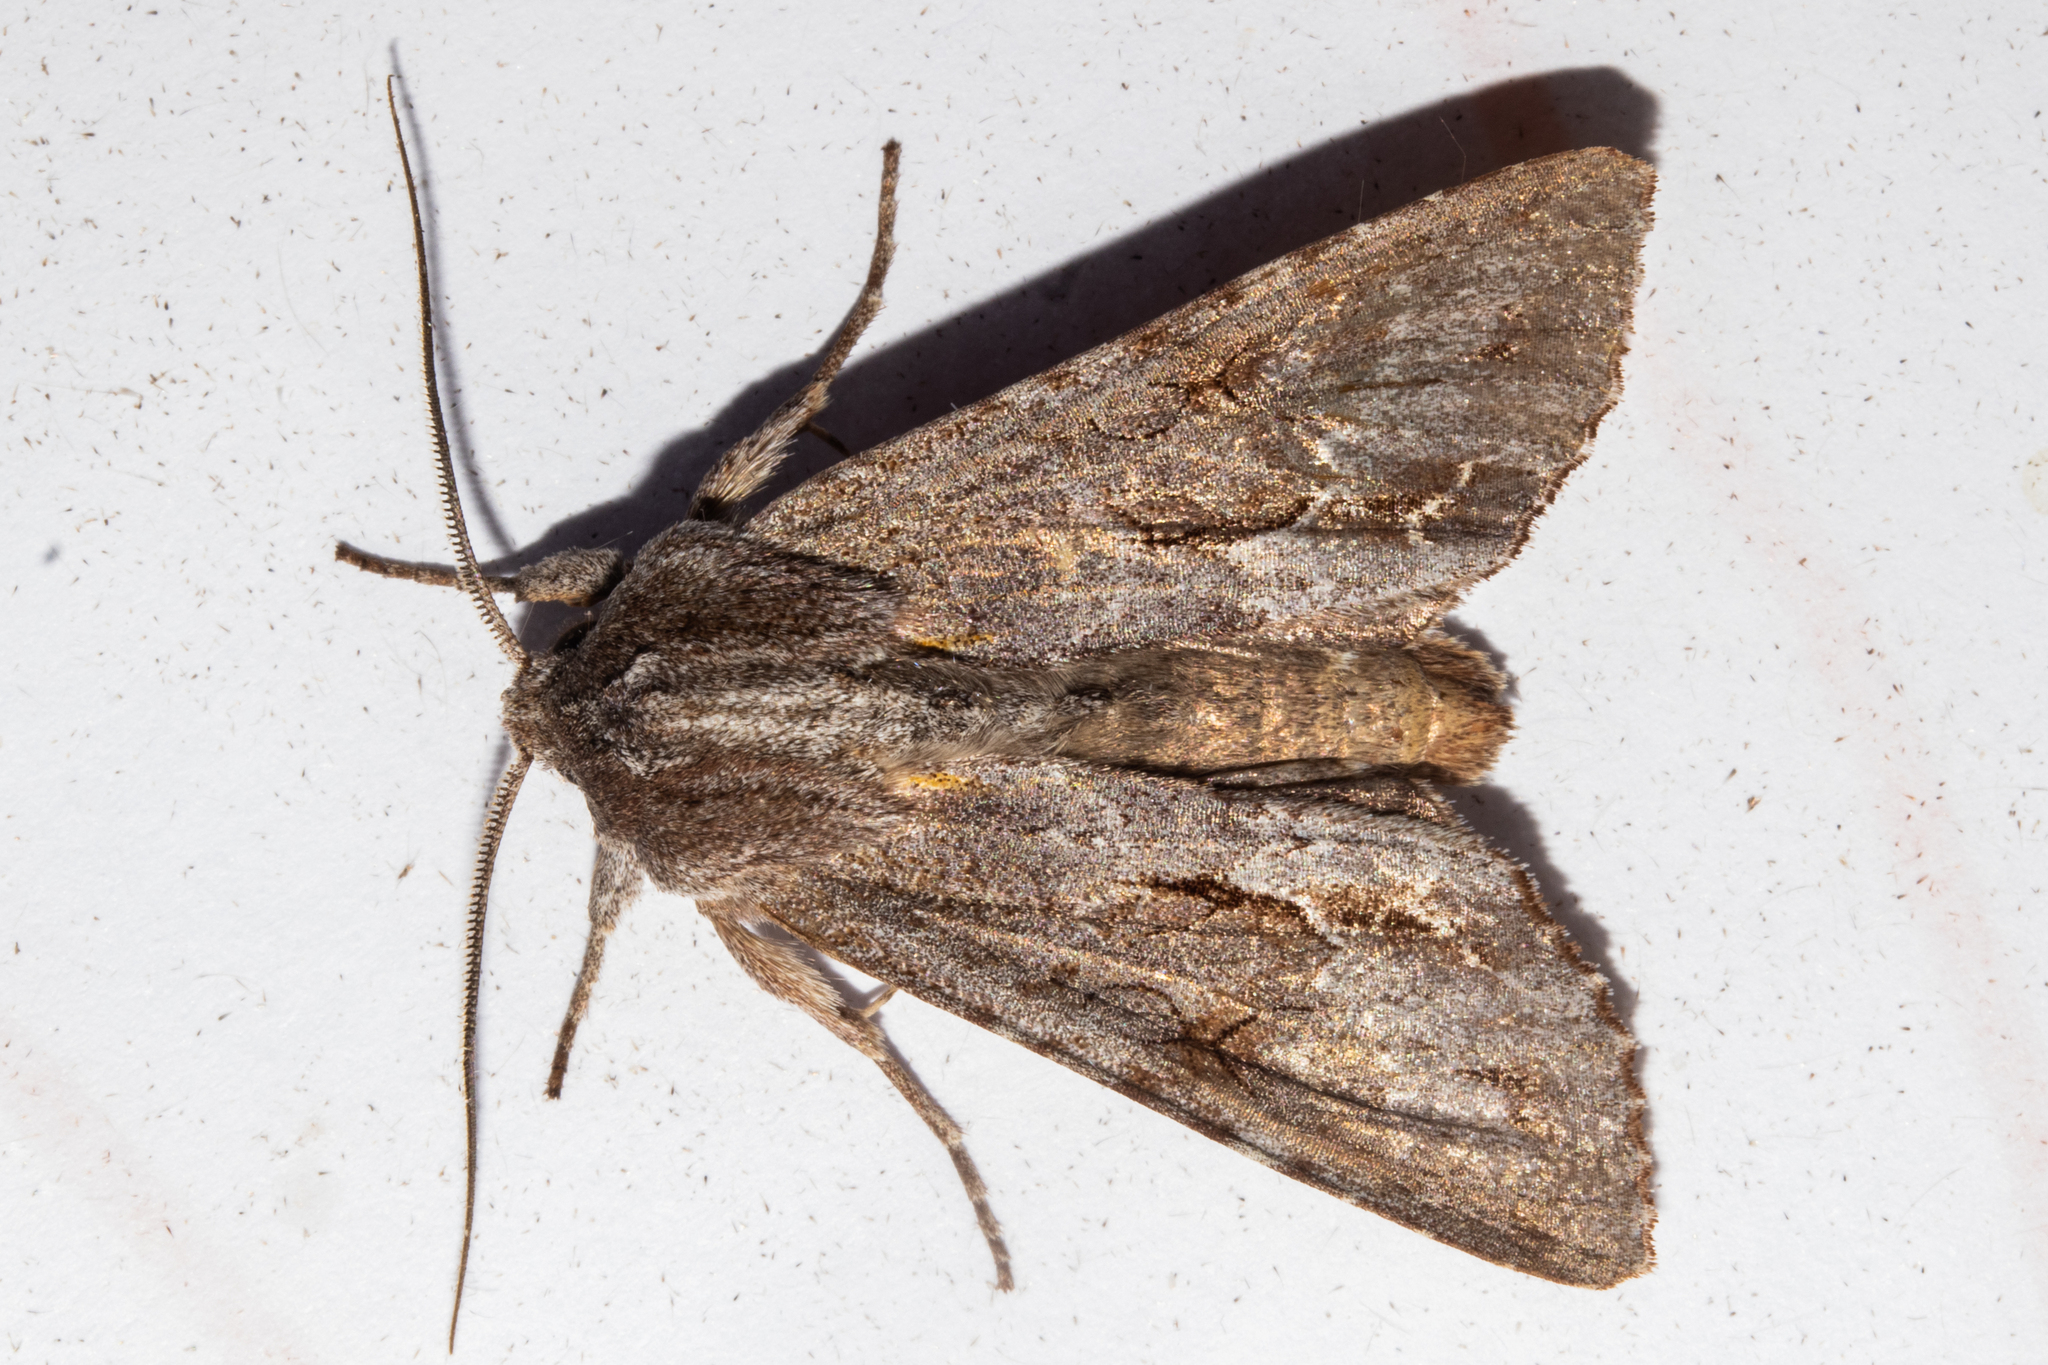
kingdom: Animalia
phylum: Arthropoda
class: Insecta
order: Lepidoptera
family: Noctuidae
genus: Ichneutica
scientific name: Ichneutica
